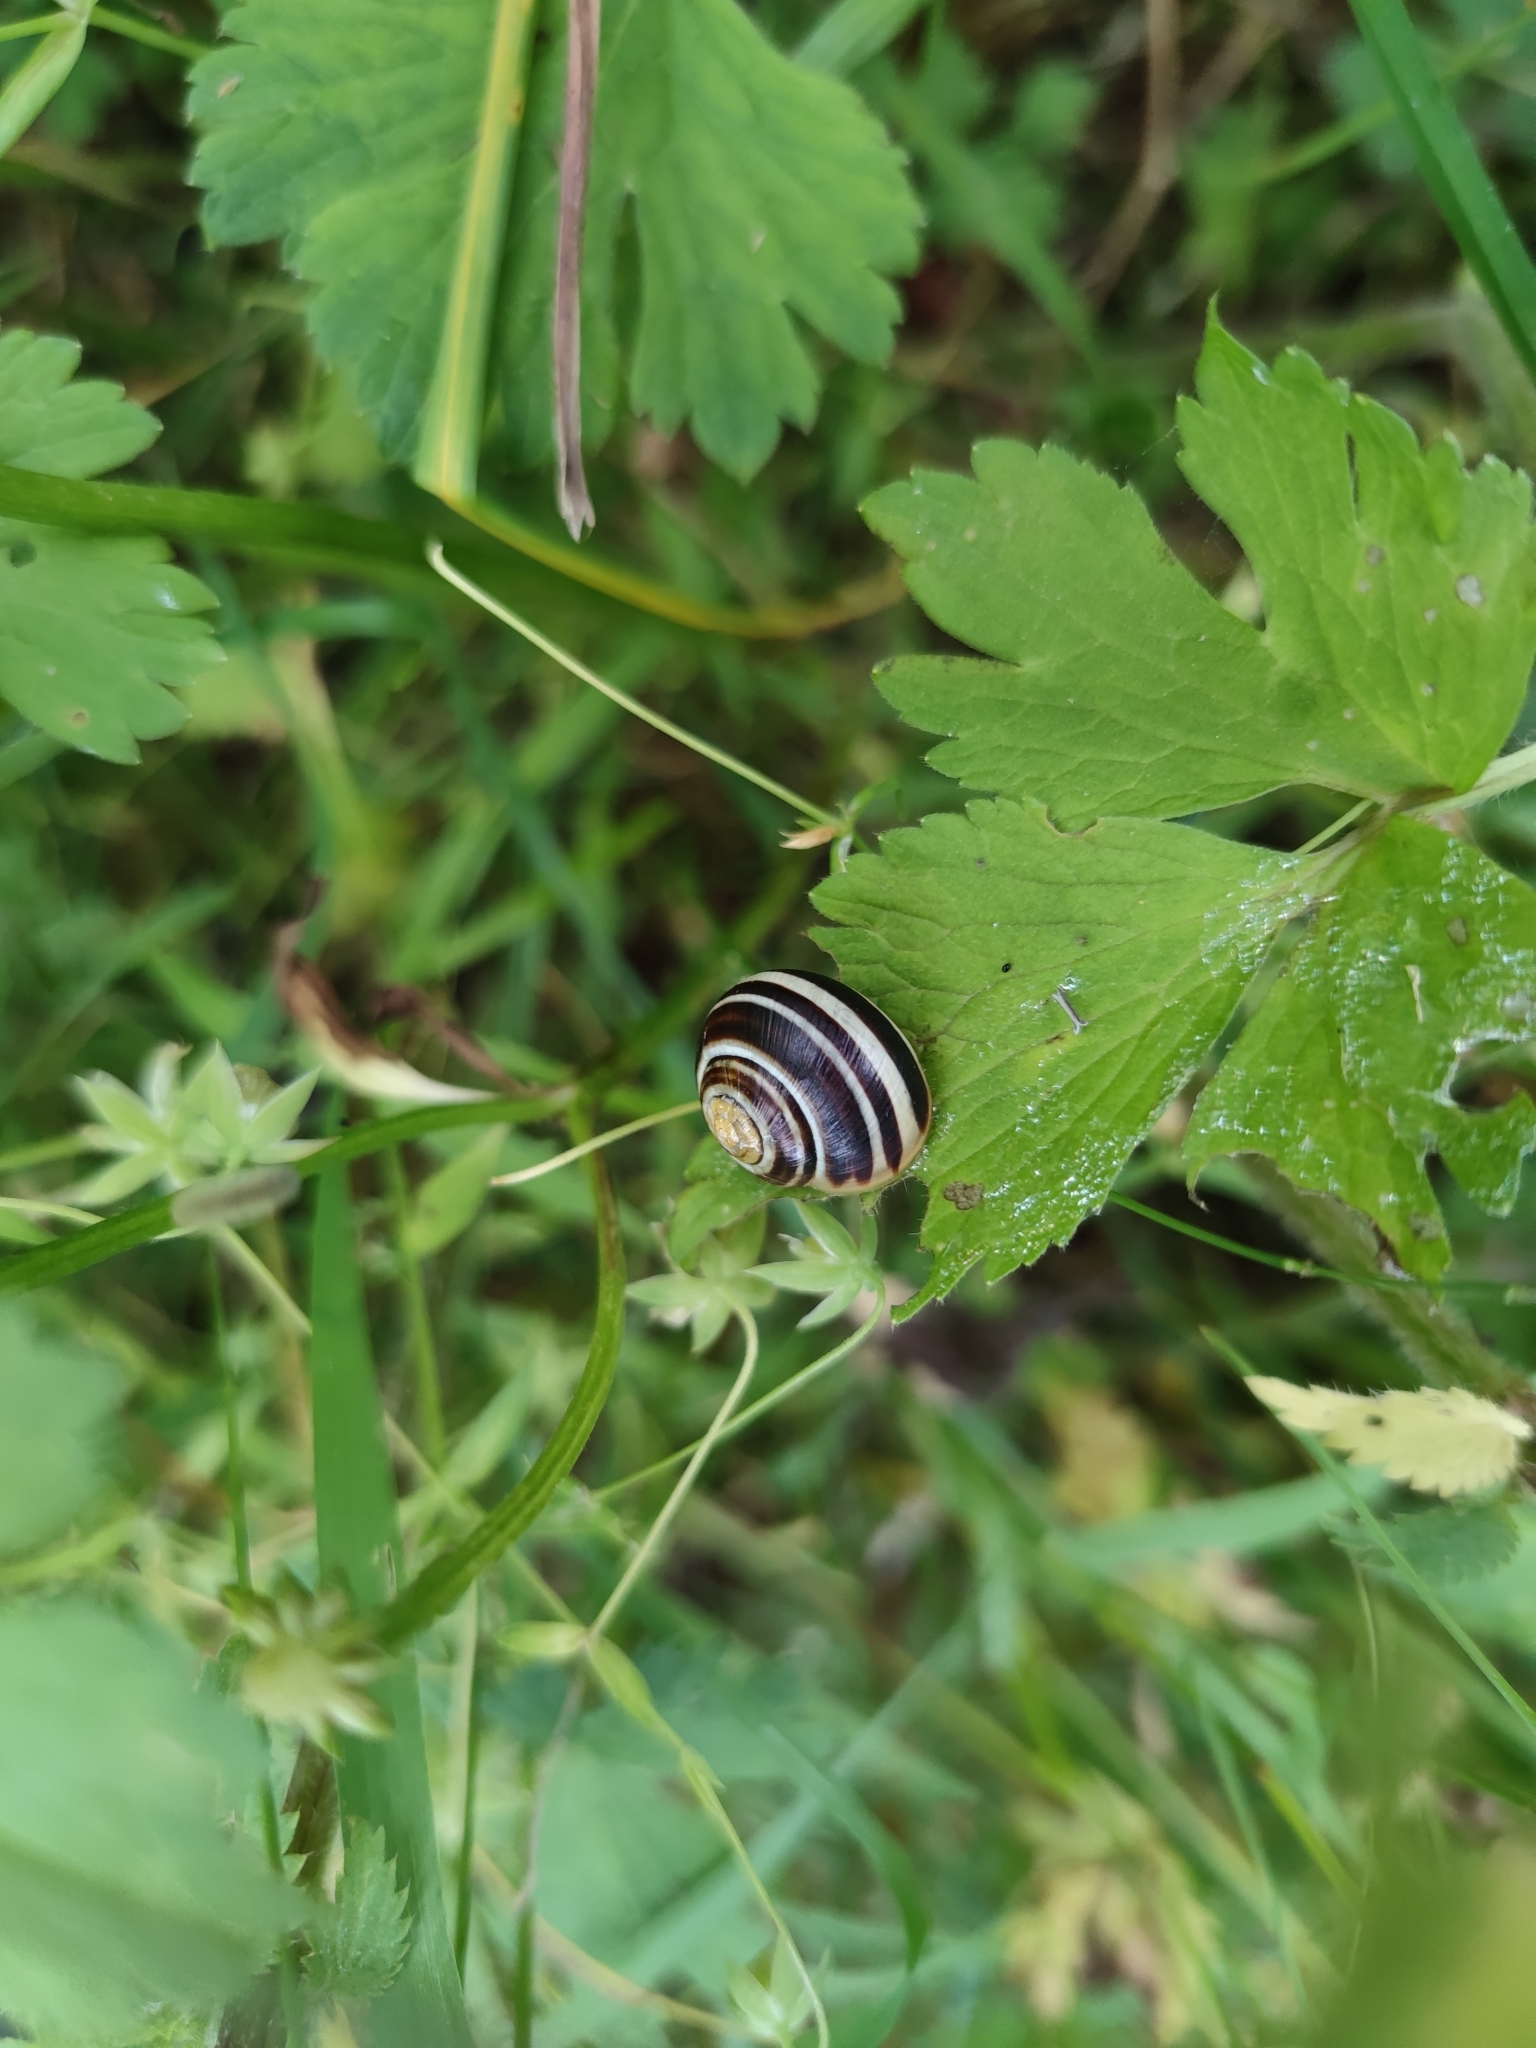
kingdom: Animalia
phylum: Mollusca
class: Gastropoda
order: Stylommatophora
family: Helicidae
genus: Cepaea
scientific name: Cepaea
